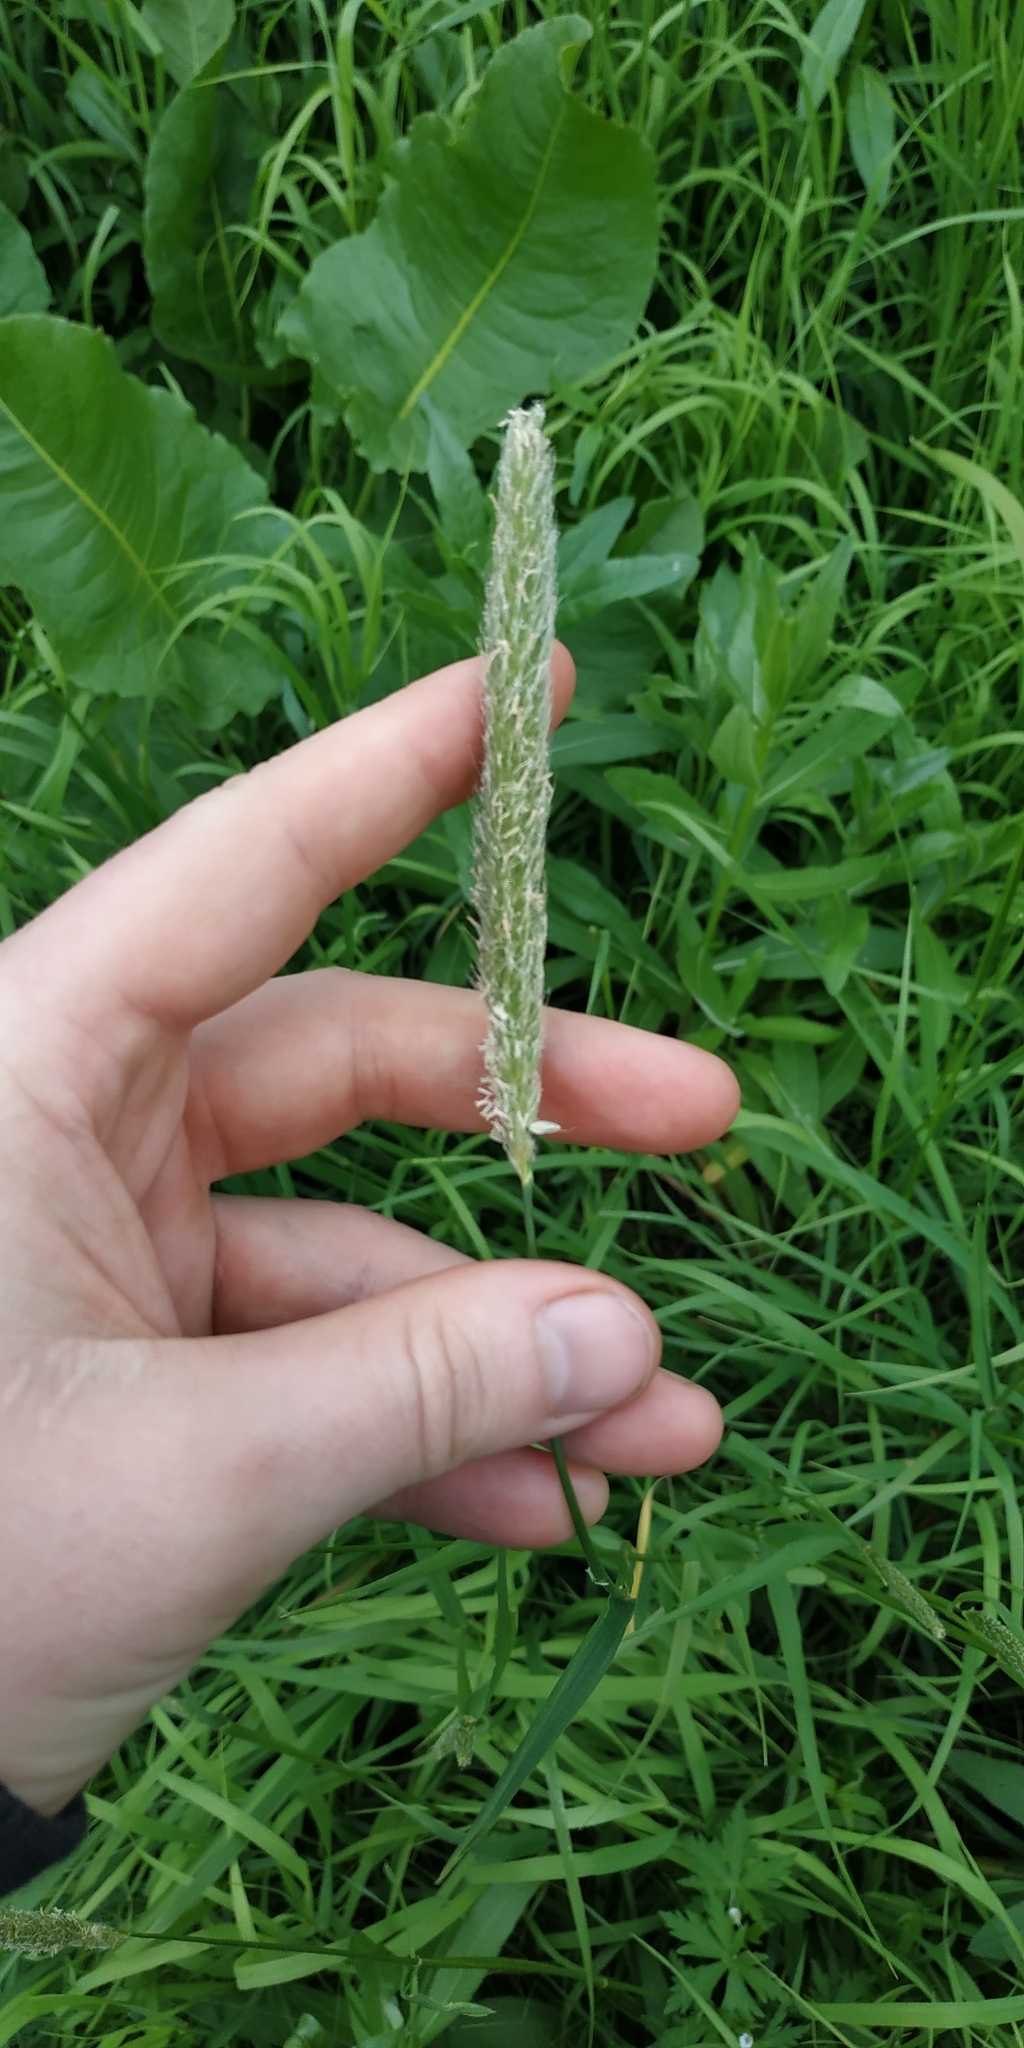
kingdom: Plantae
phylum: Tracheophyta
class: Liliopsida
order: Poales
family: Poaceae
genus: Alopecurus
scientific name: Alopecurus pratensis
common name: Meadow foxtail
